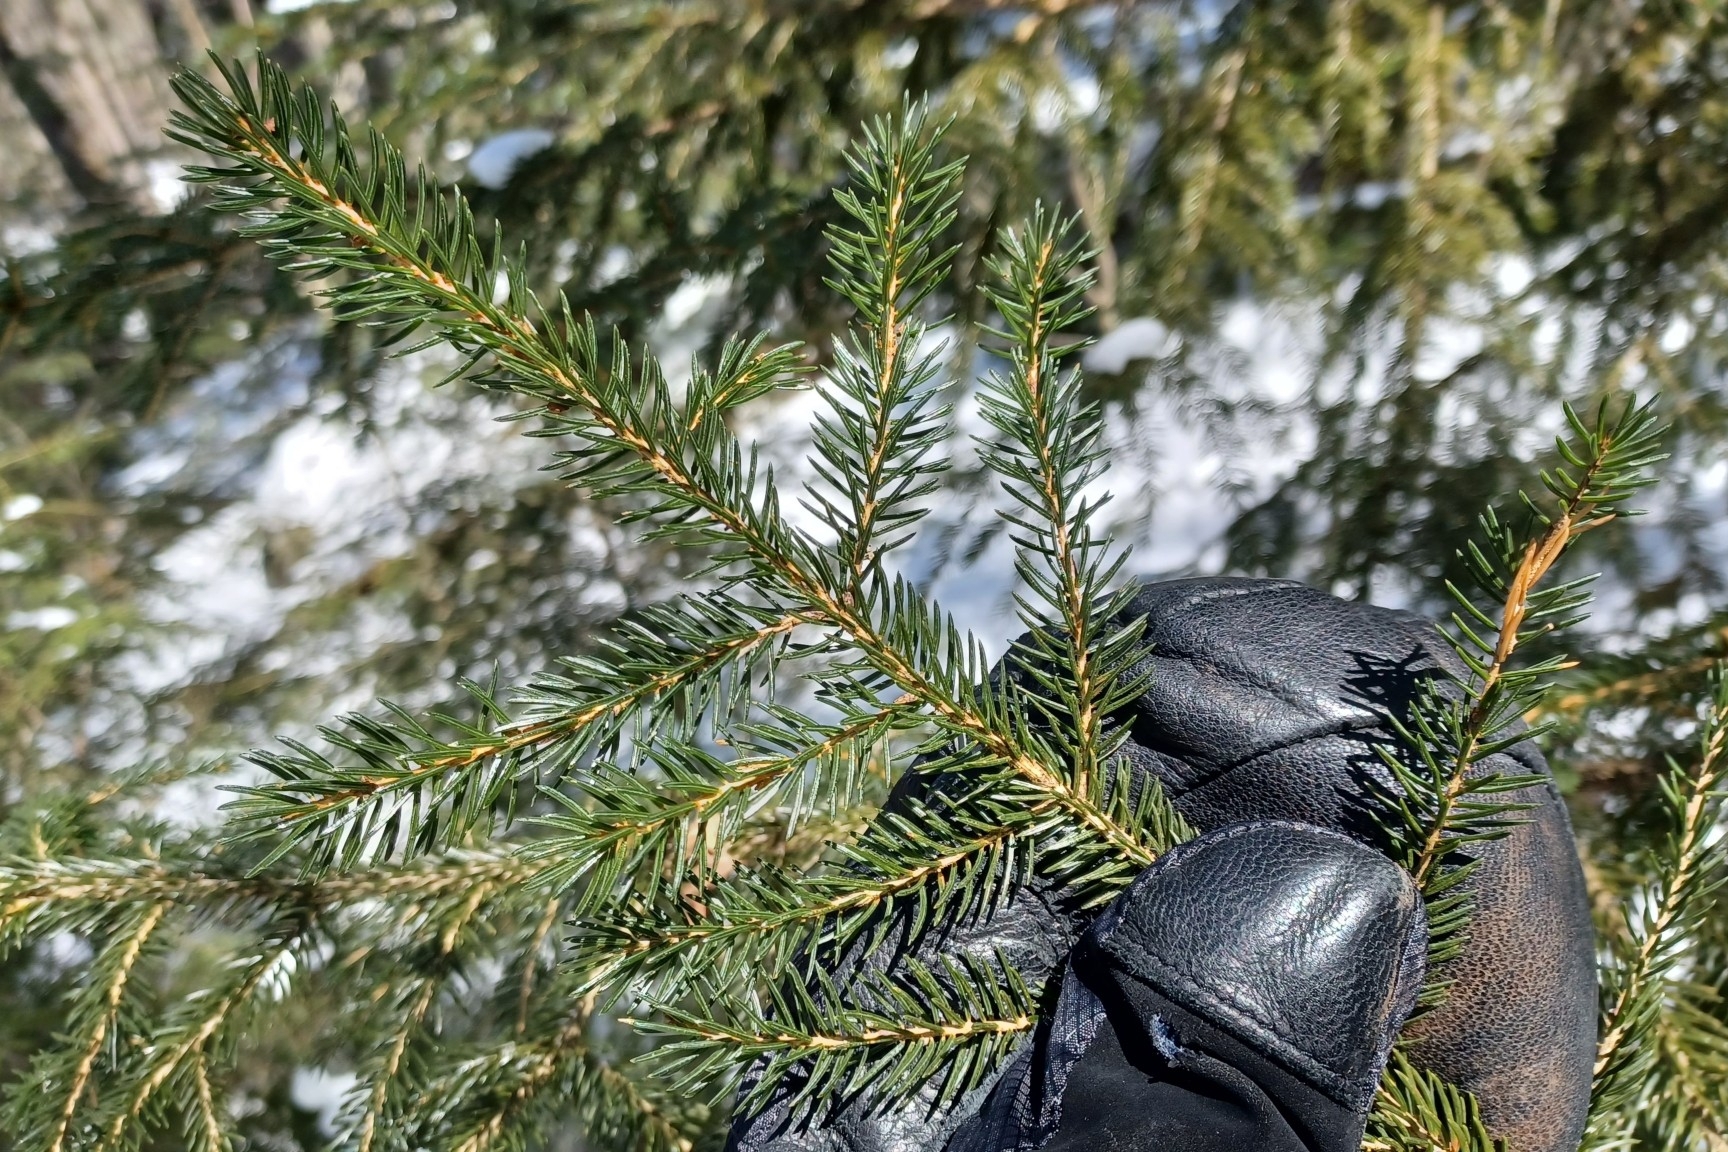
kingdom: Plantae
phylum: Tracheophyta
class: Pinopsida
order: Pinales
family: Pinaceae
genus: Picea
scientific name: Picea rubens
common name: Red spruce
